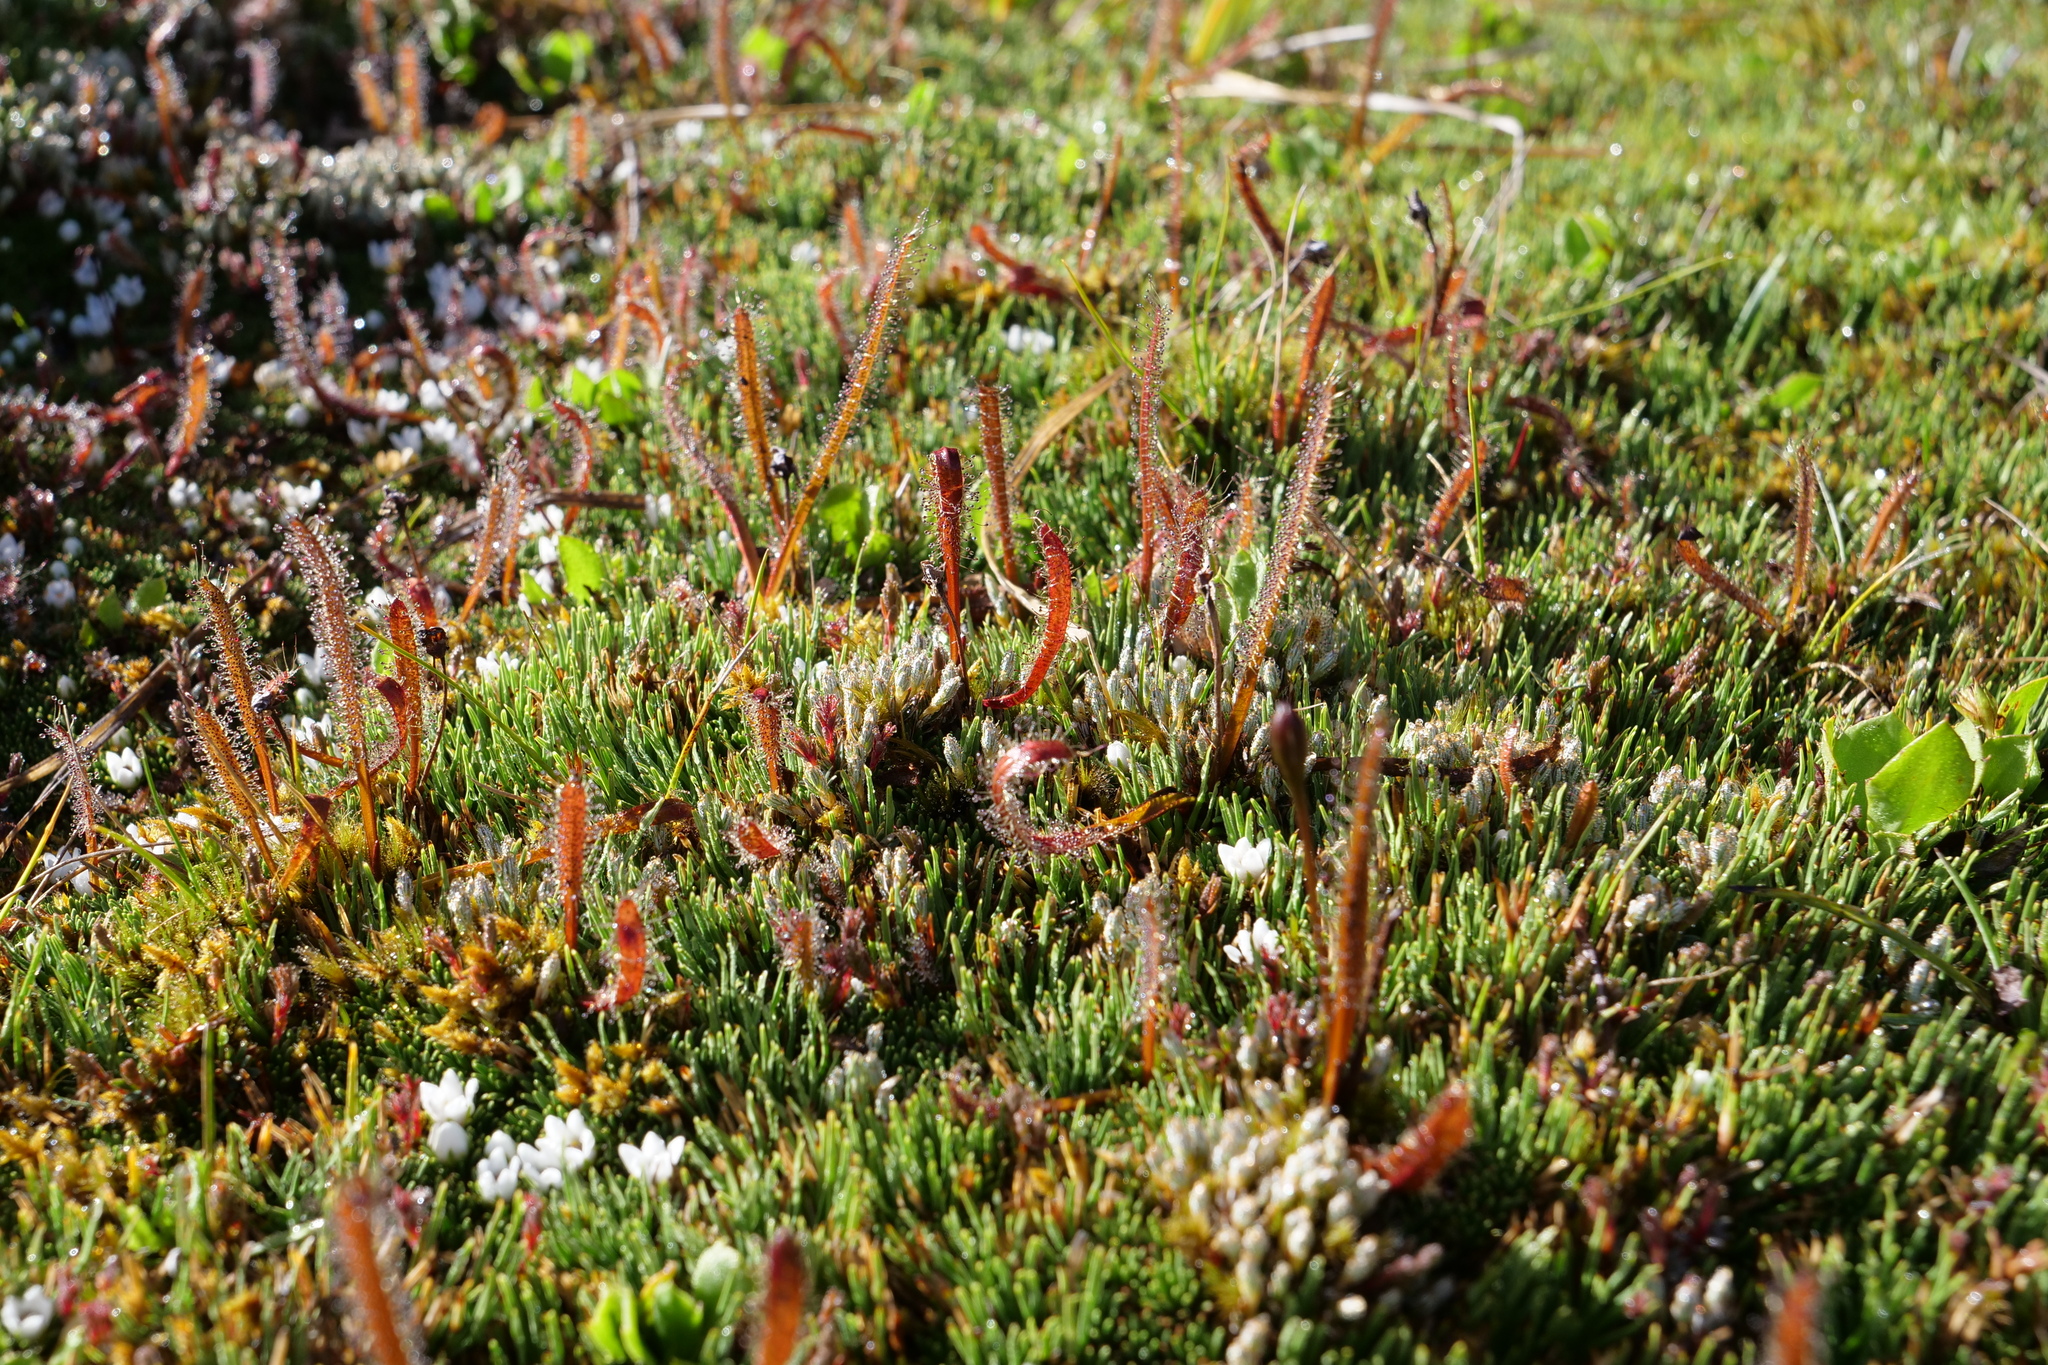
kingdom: Plantae
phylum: Tracheophyta
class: Magnoliopsida
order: Caryophyllales
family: Droseraceae
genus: Drosera
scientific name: Drosera arcturi
